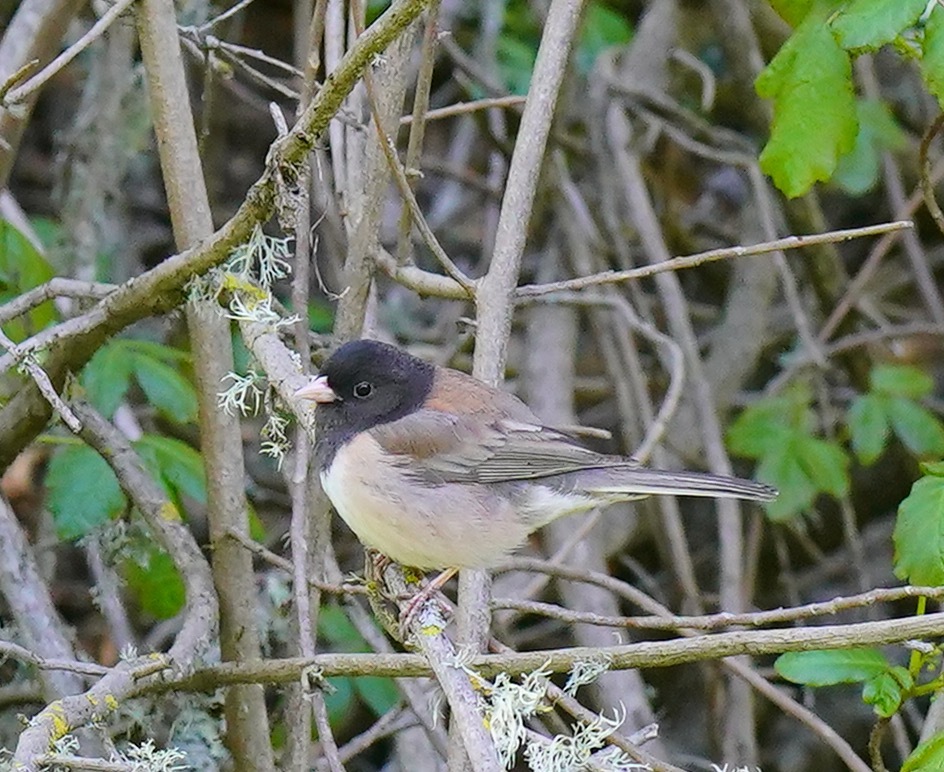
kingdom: Animalia
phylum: Chordata
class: Aves
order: Passeriformes
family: Passerellidae
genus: Junco
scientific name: Junco hyemalis
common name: Dark-eyed junco
